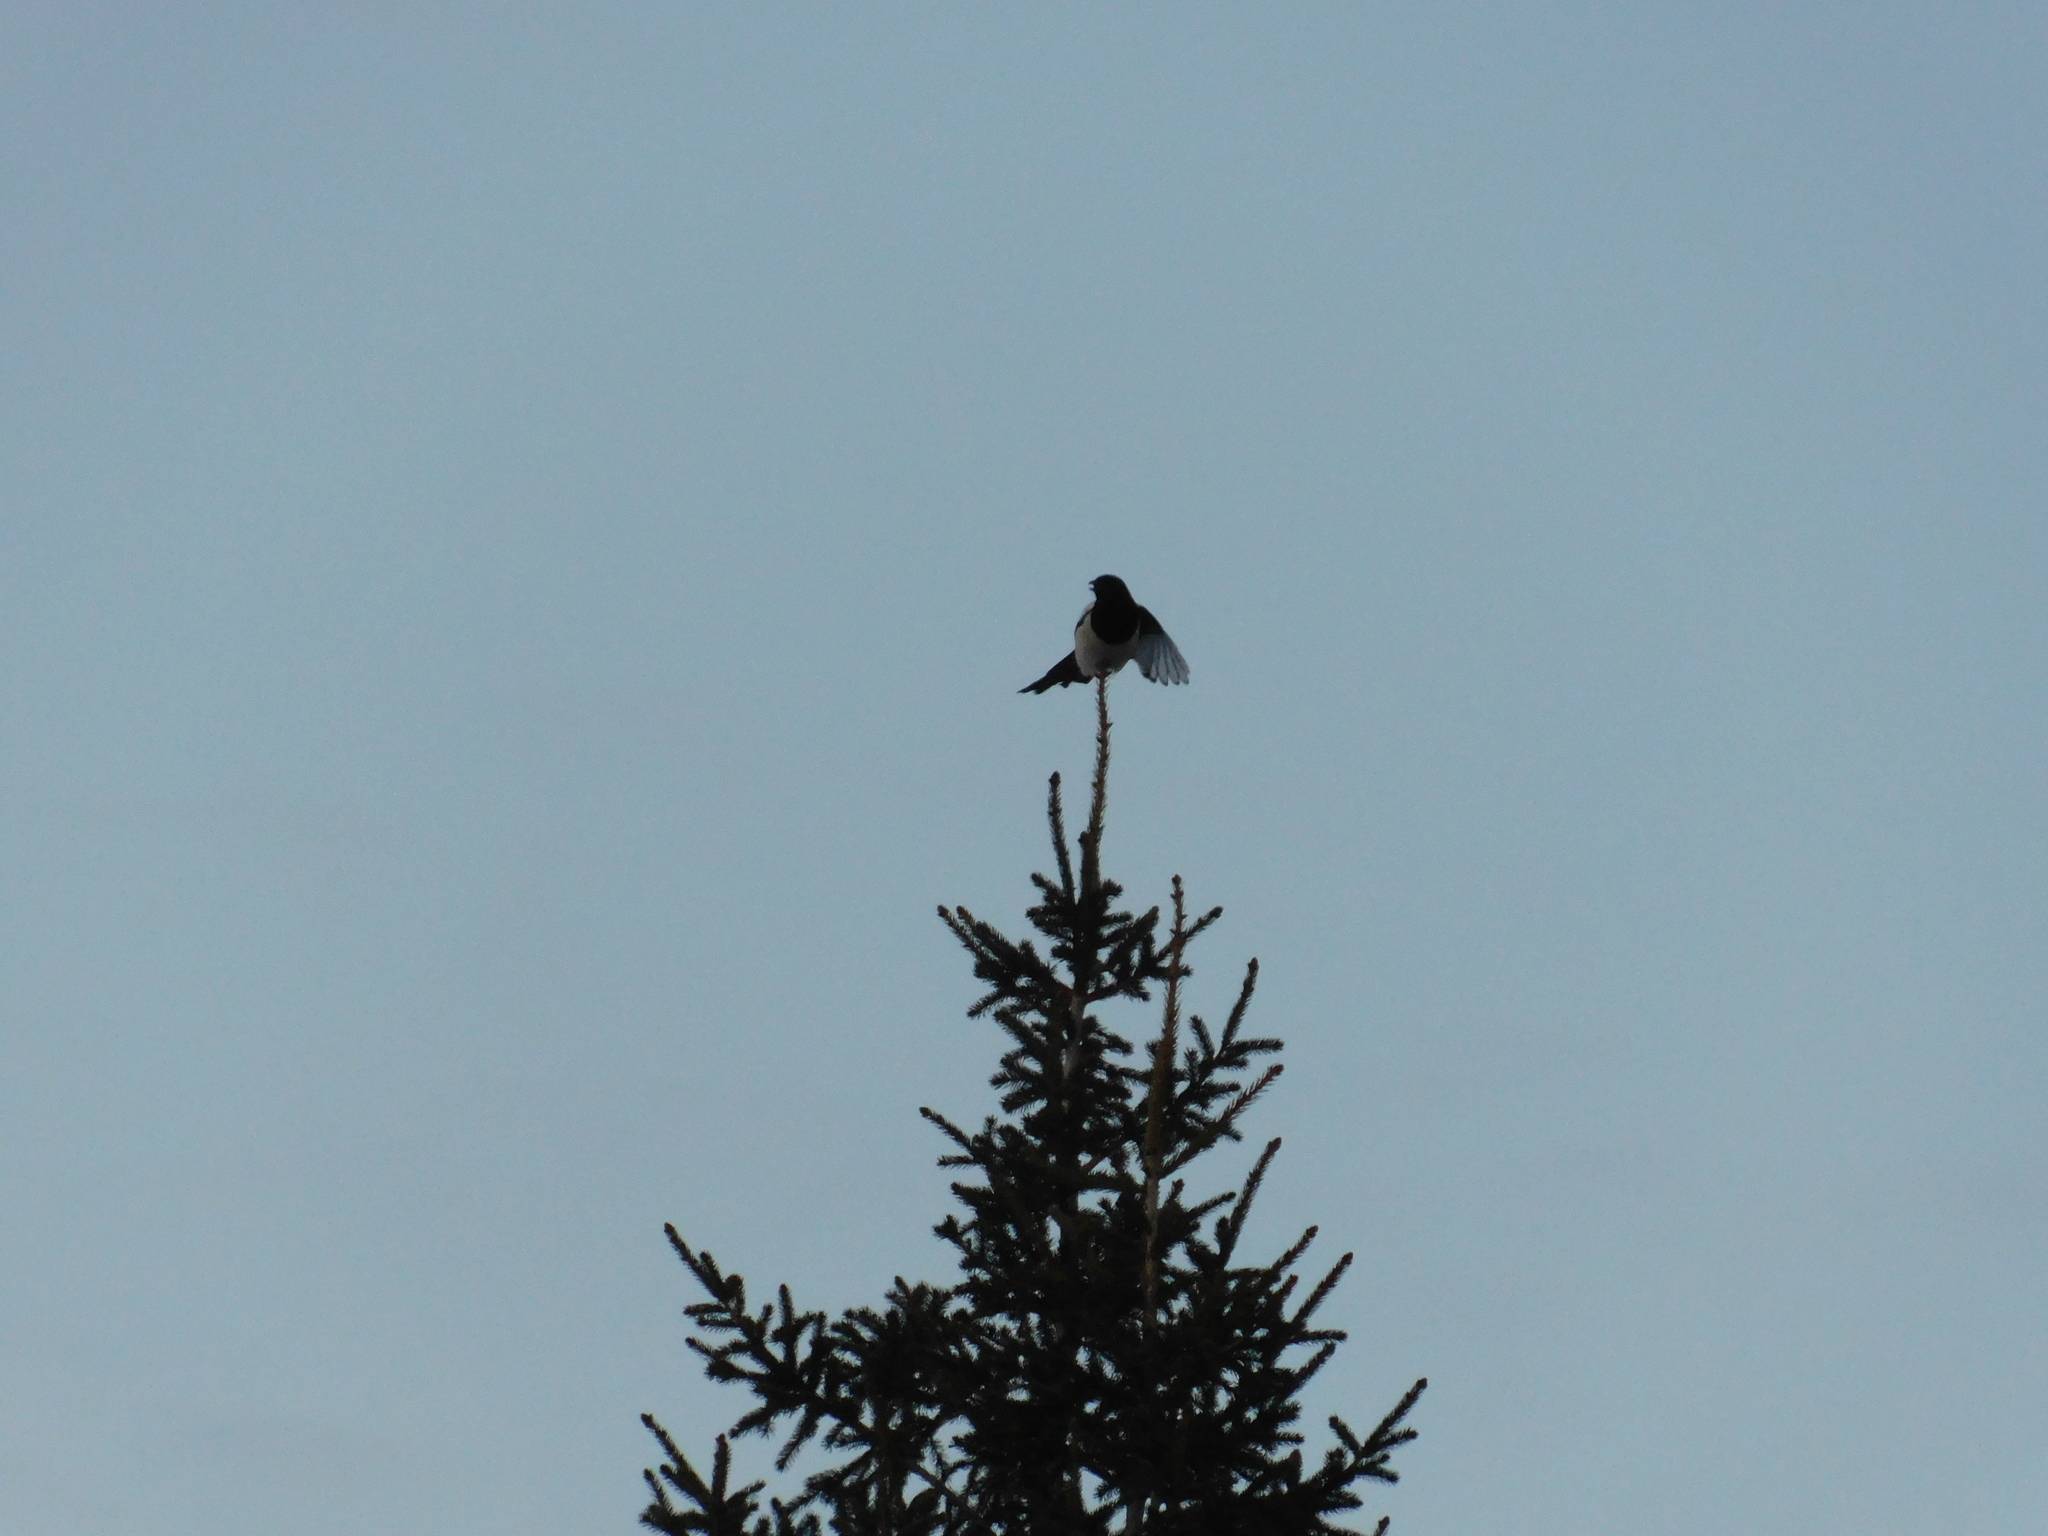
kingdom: Animalia
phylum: Chordata
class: Aves
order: Passeriformes
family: Corvidae
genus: Pica
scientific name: Pica pica
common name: Eurasian magpie
